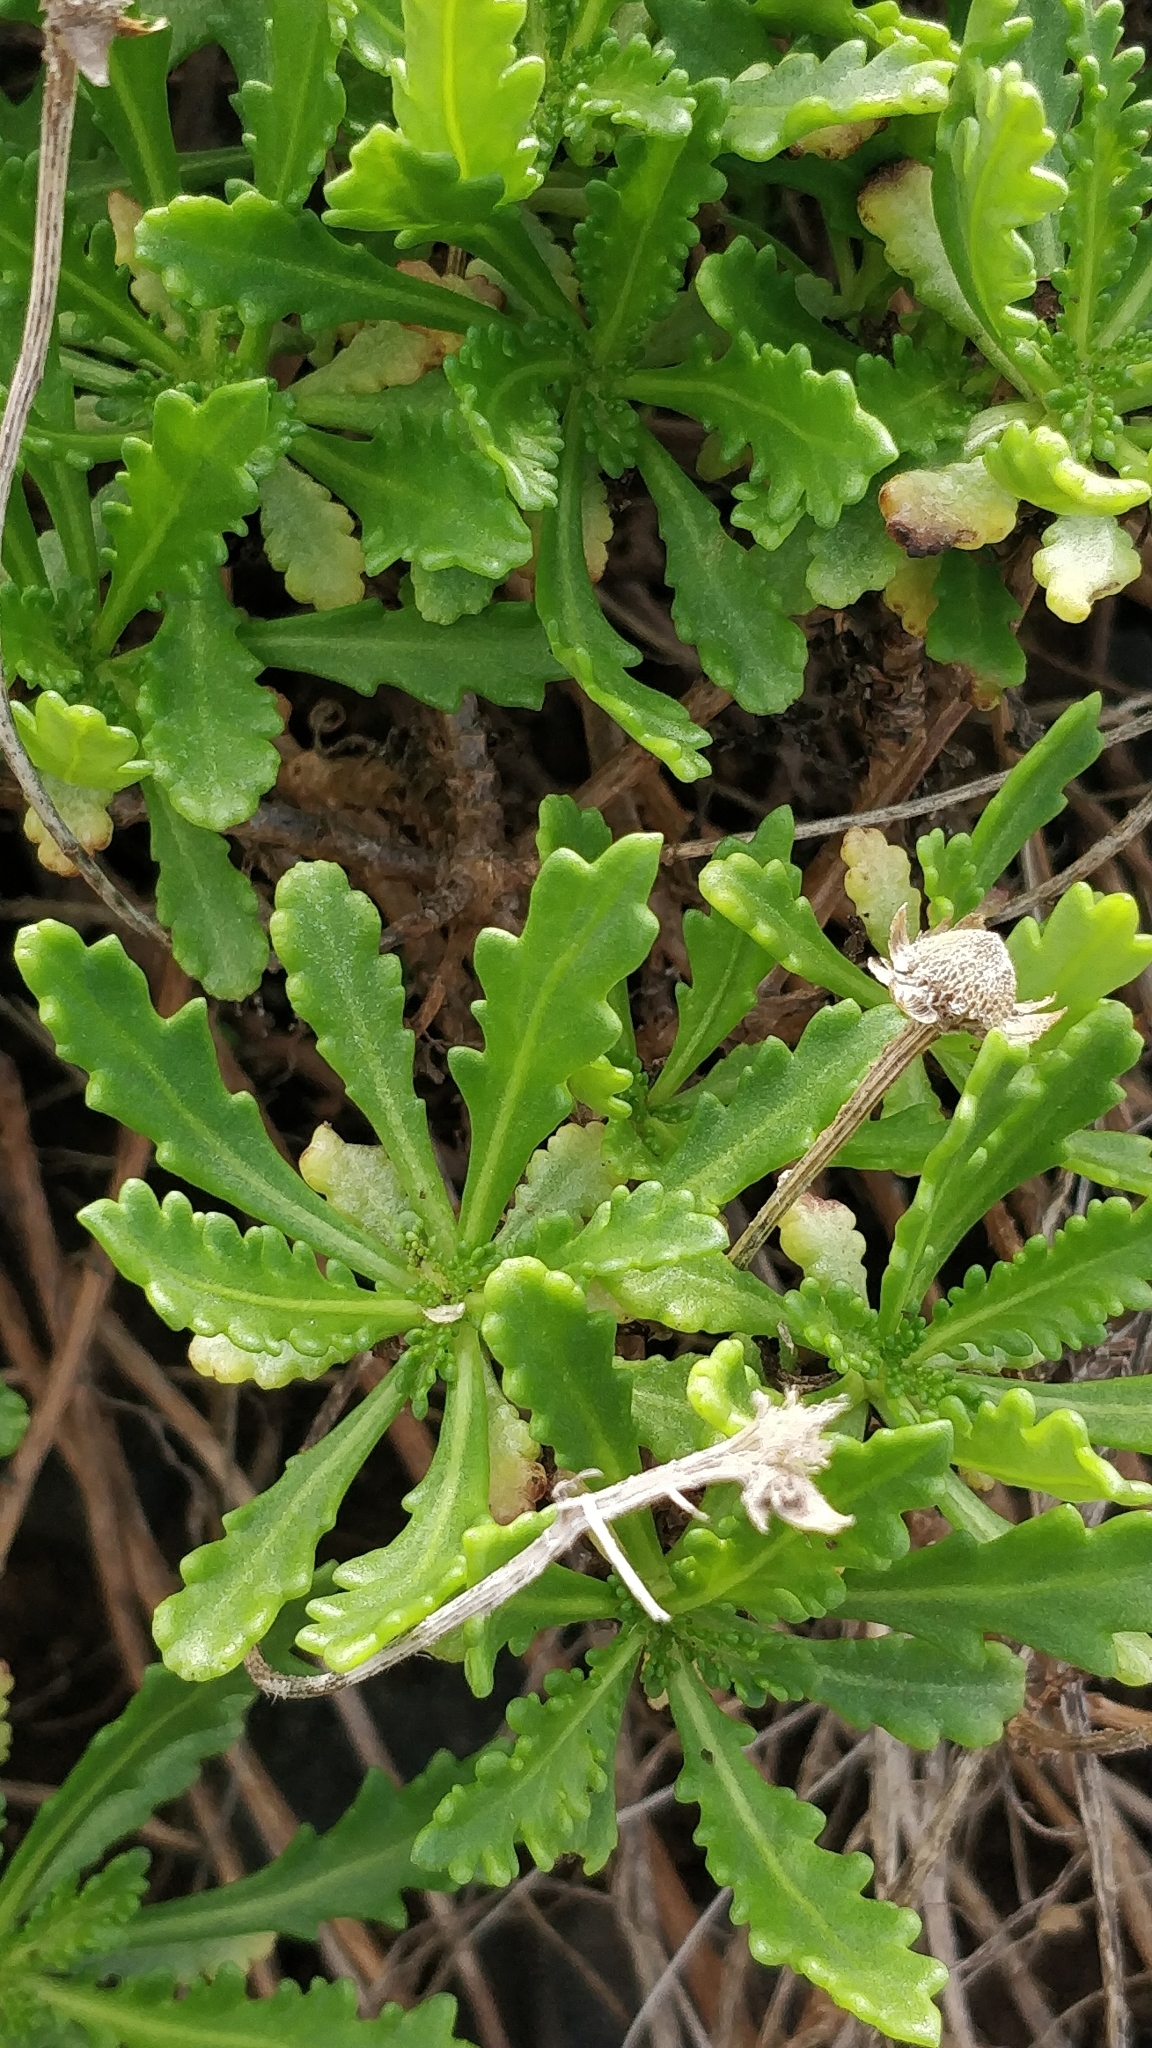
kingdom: Plantae
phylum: Tracheophyta
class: Magnoliopsida
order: Asterales
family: Asteraceae
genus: Argyranthemum
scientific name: Argyranthemum pinnatifidum
